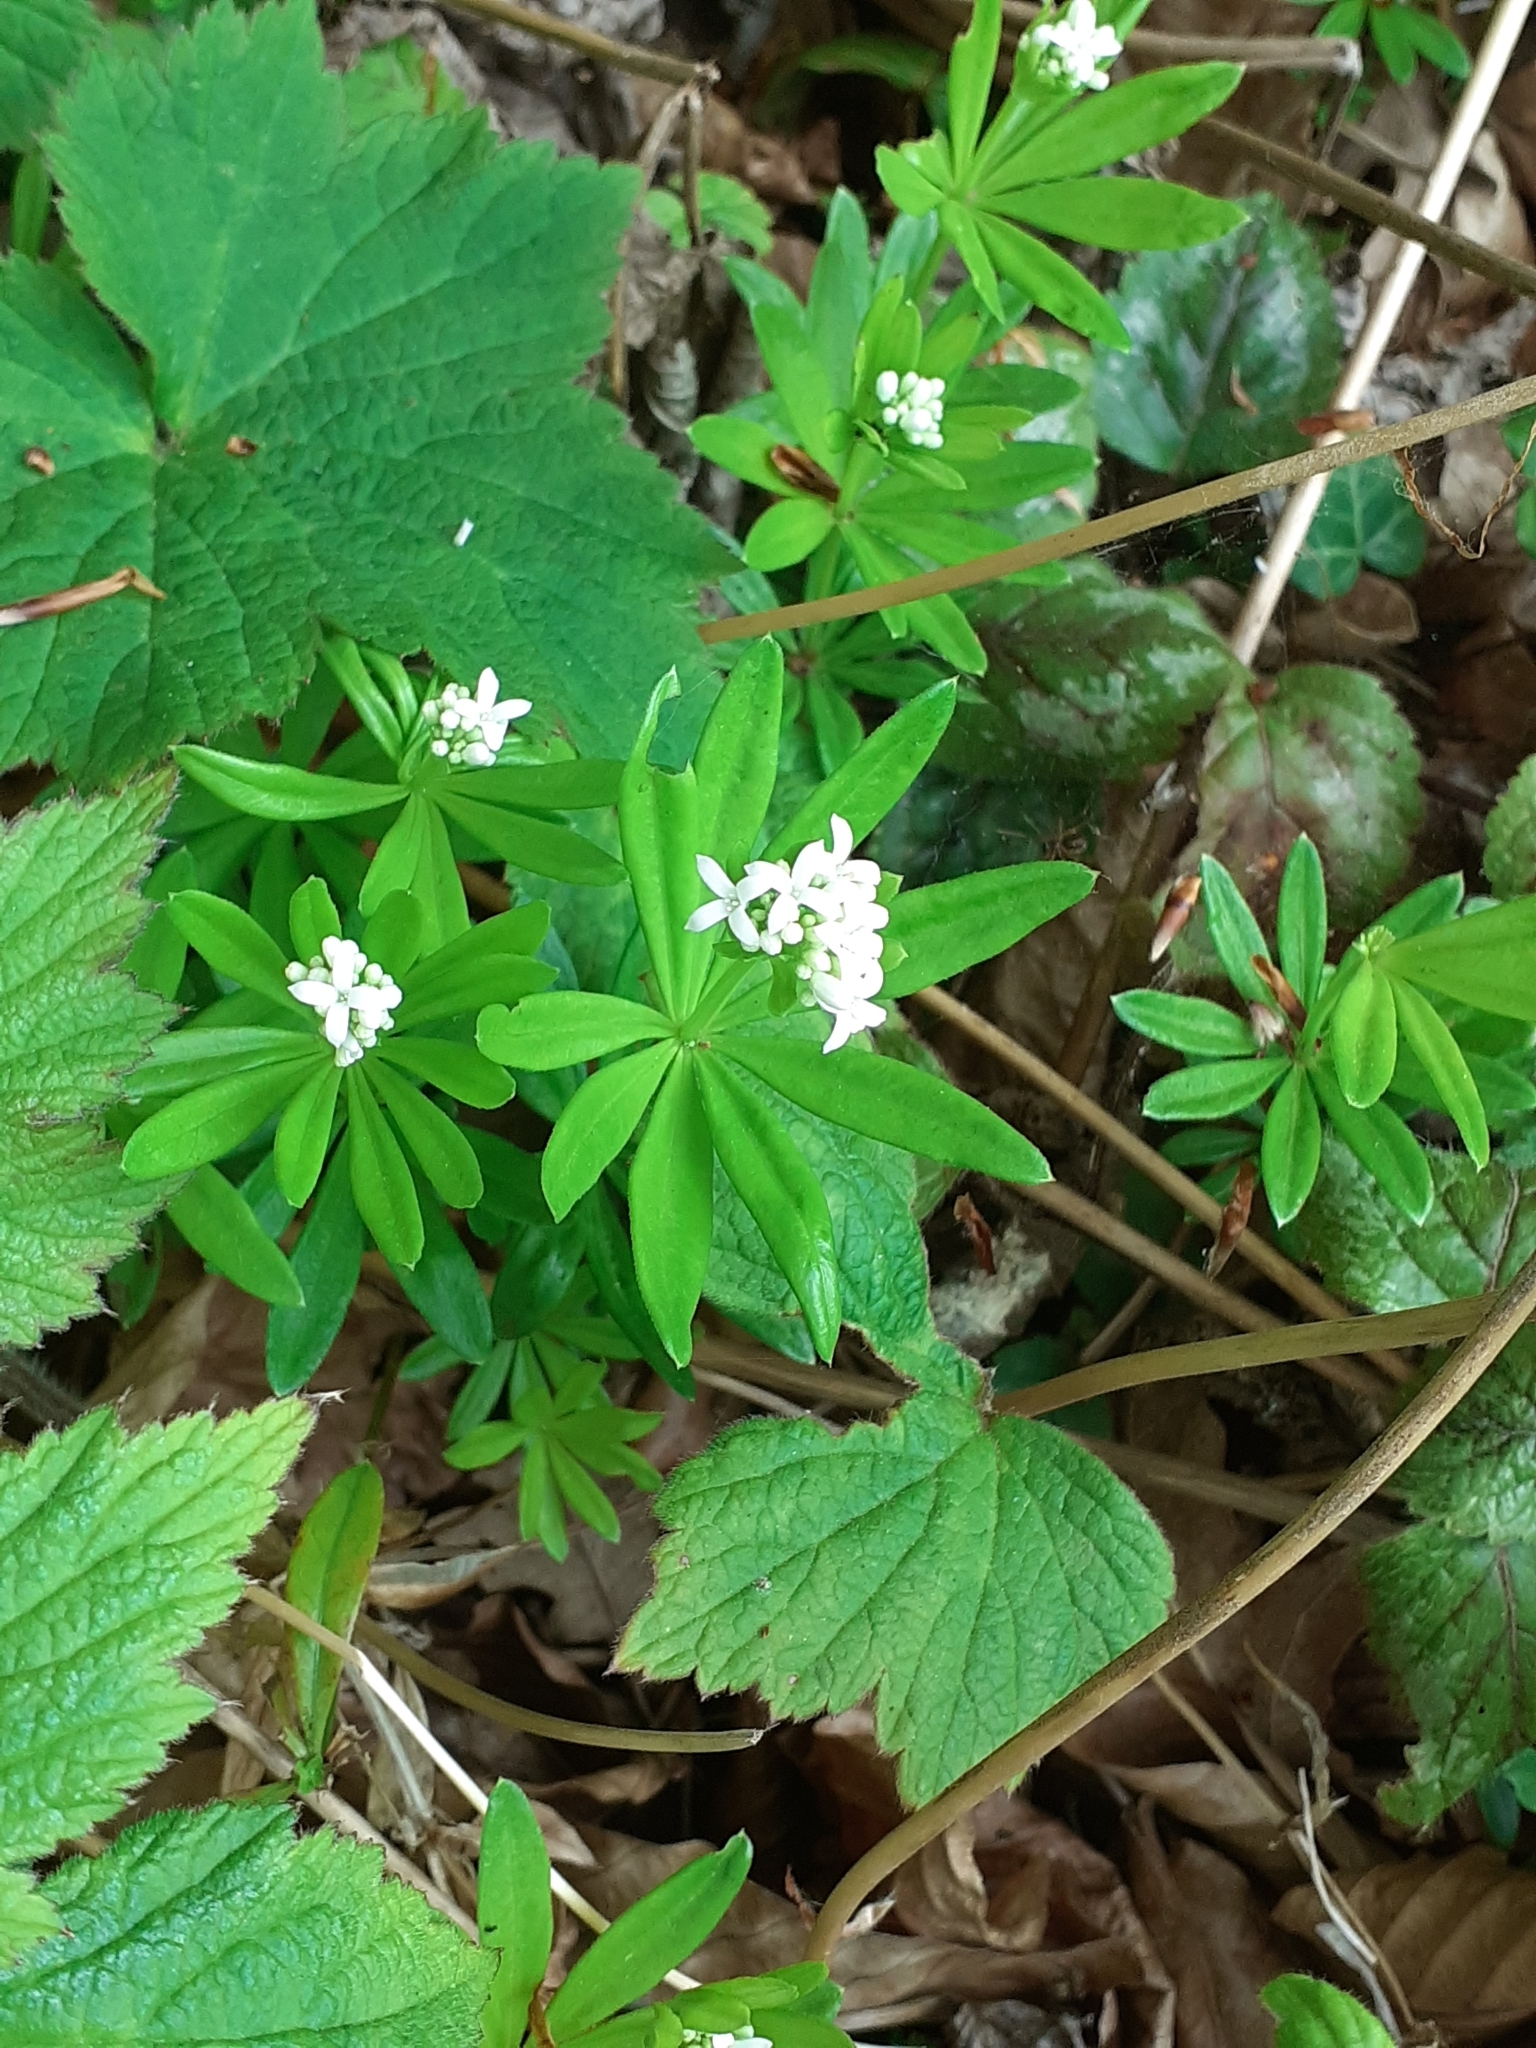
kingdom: Plantae
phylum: Tracheophyta
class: Magnoliopsida
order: Gentianales
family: Rubiaceae
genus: Galium
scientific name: Galium odoratum
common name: Sweet woodruff
